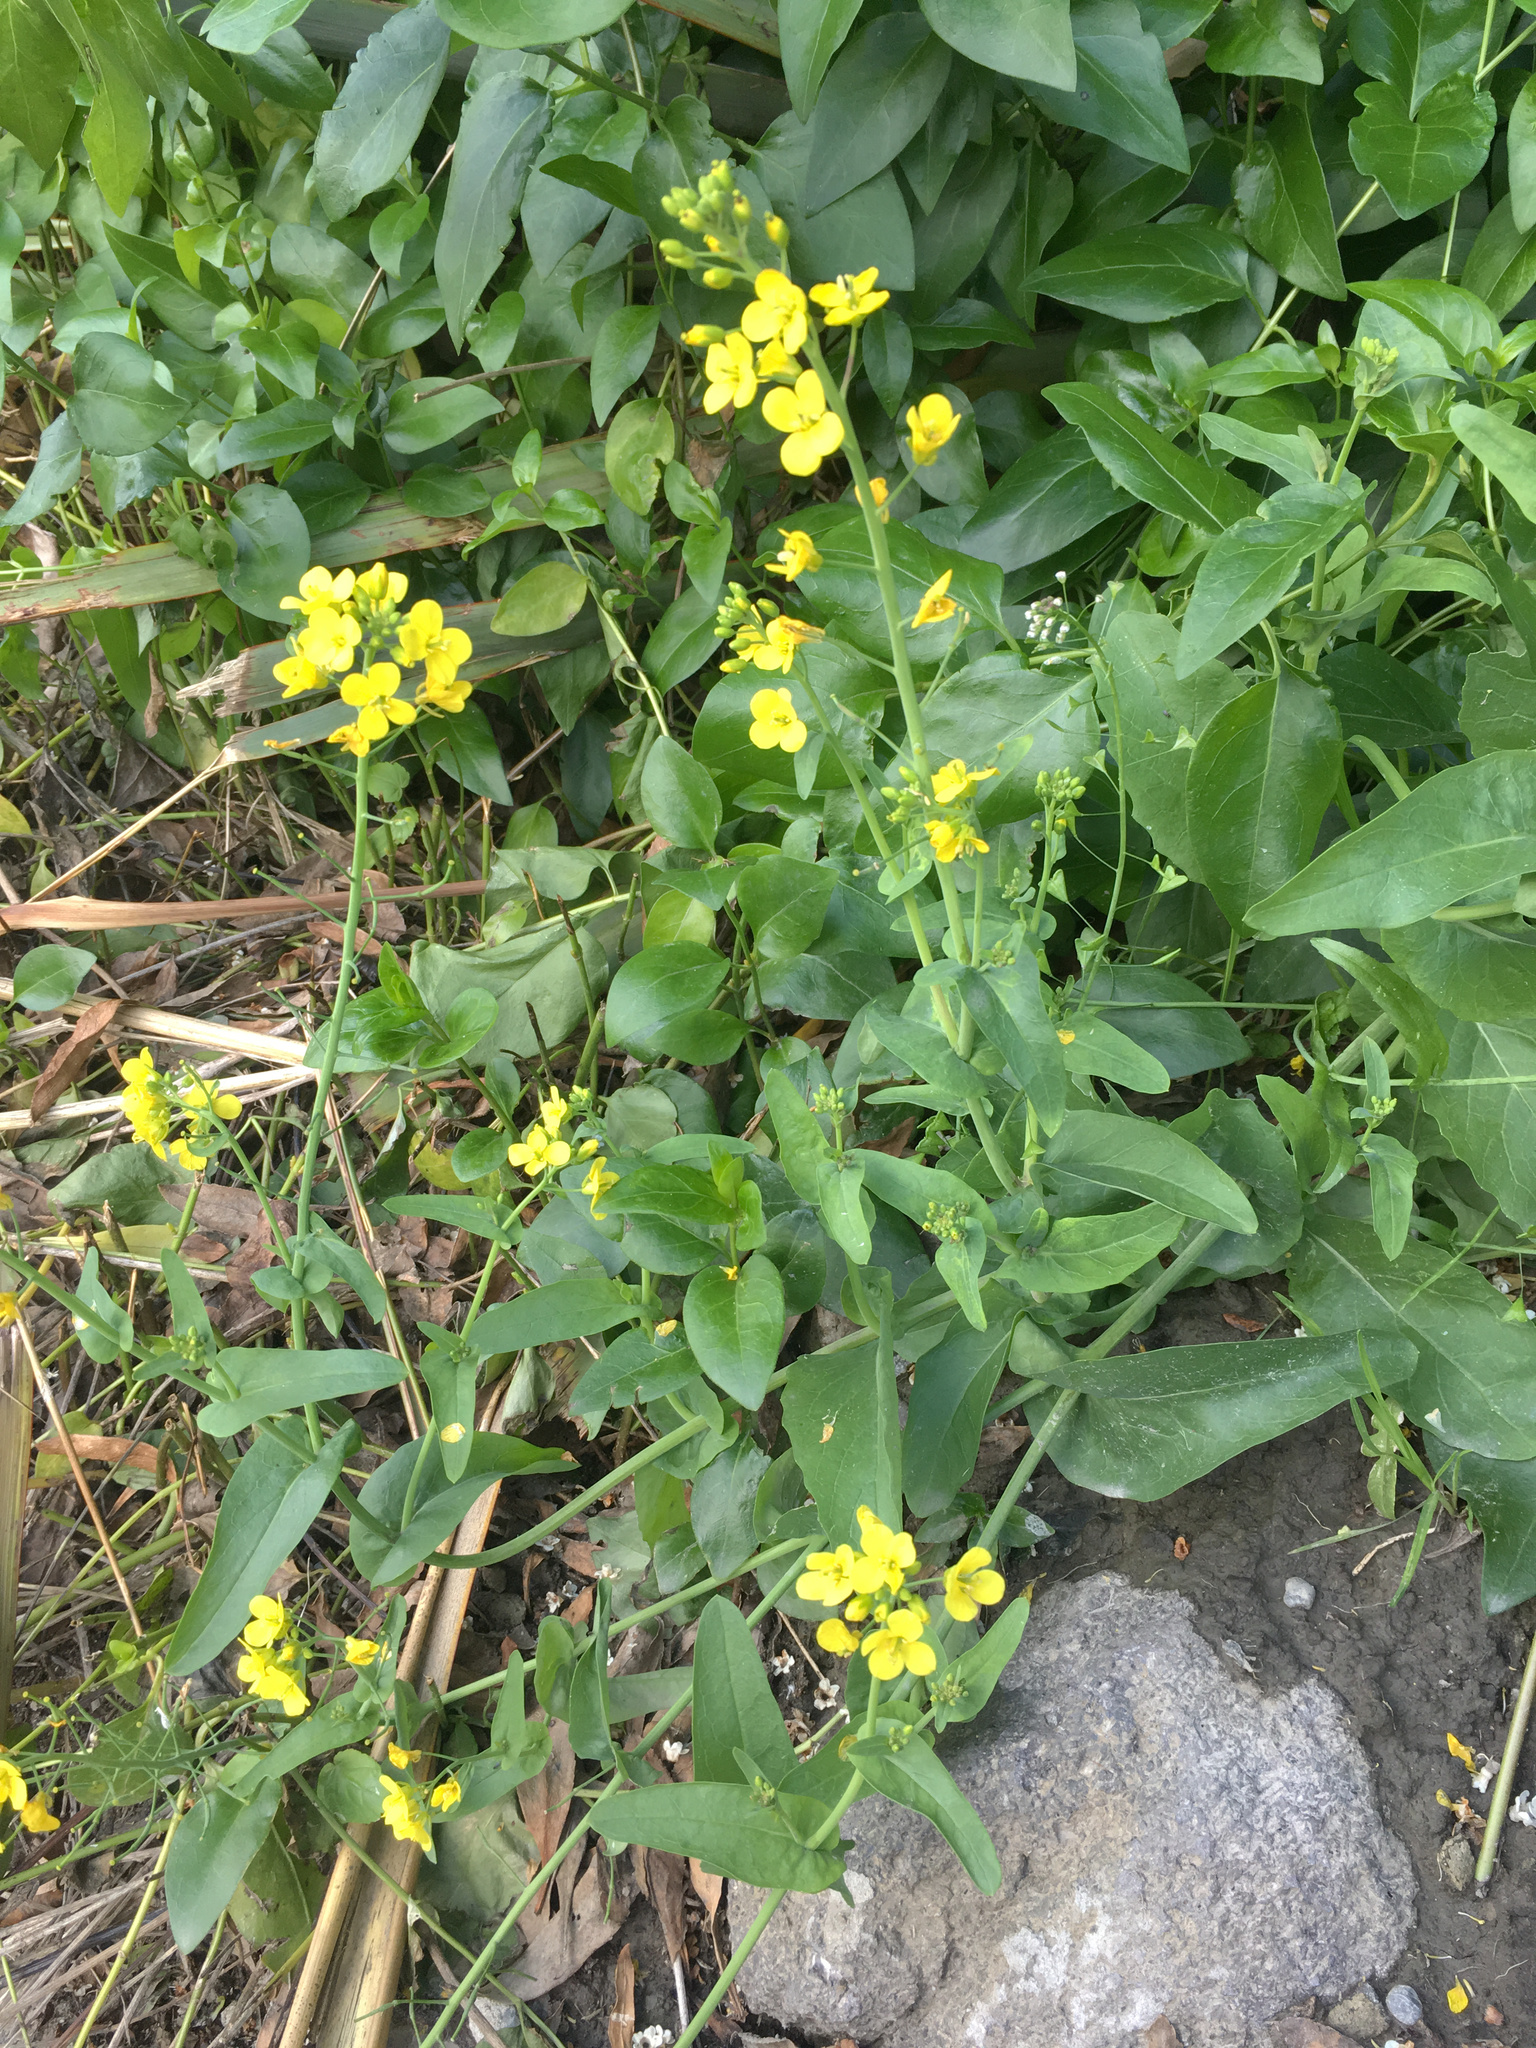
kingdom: Plantae
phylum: Tracheophyta
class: Magnoliopsida
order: Brassicales
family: Brassicaceae
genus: Brassica
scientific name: Brassica rapa
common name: Field mustard
